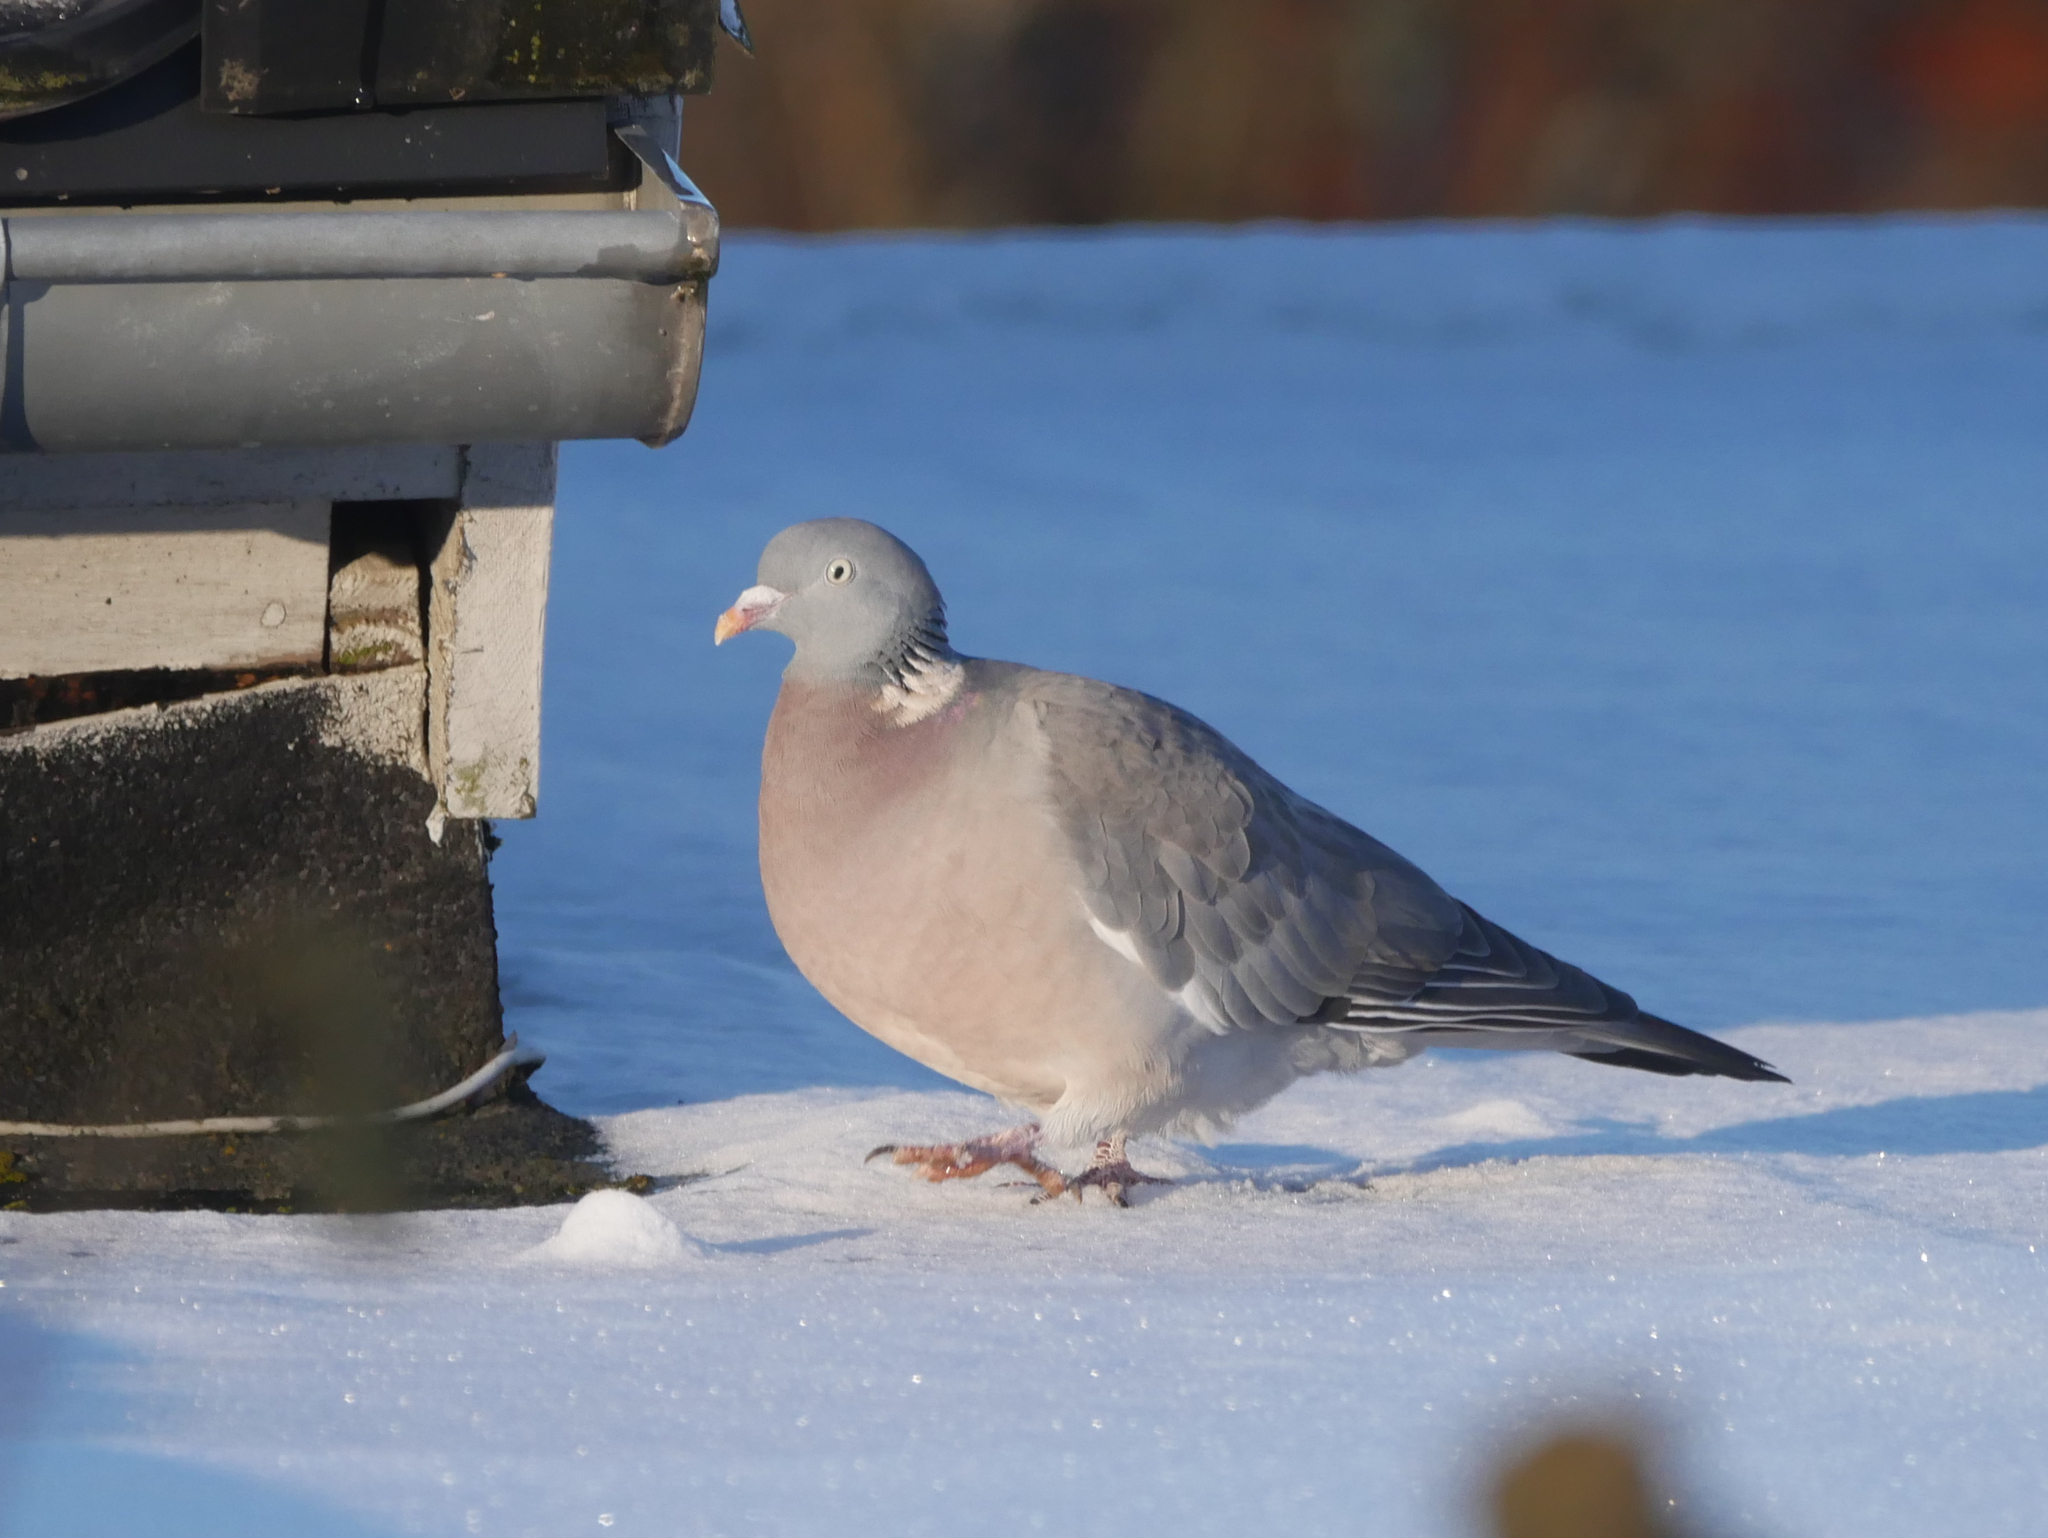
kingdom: Animalia
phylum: Chordata
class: Aves
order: Columbiformes
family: Columbidae
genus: Columba
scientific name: Columba palumbus
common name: Common wood pigeon
